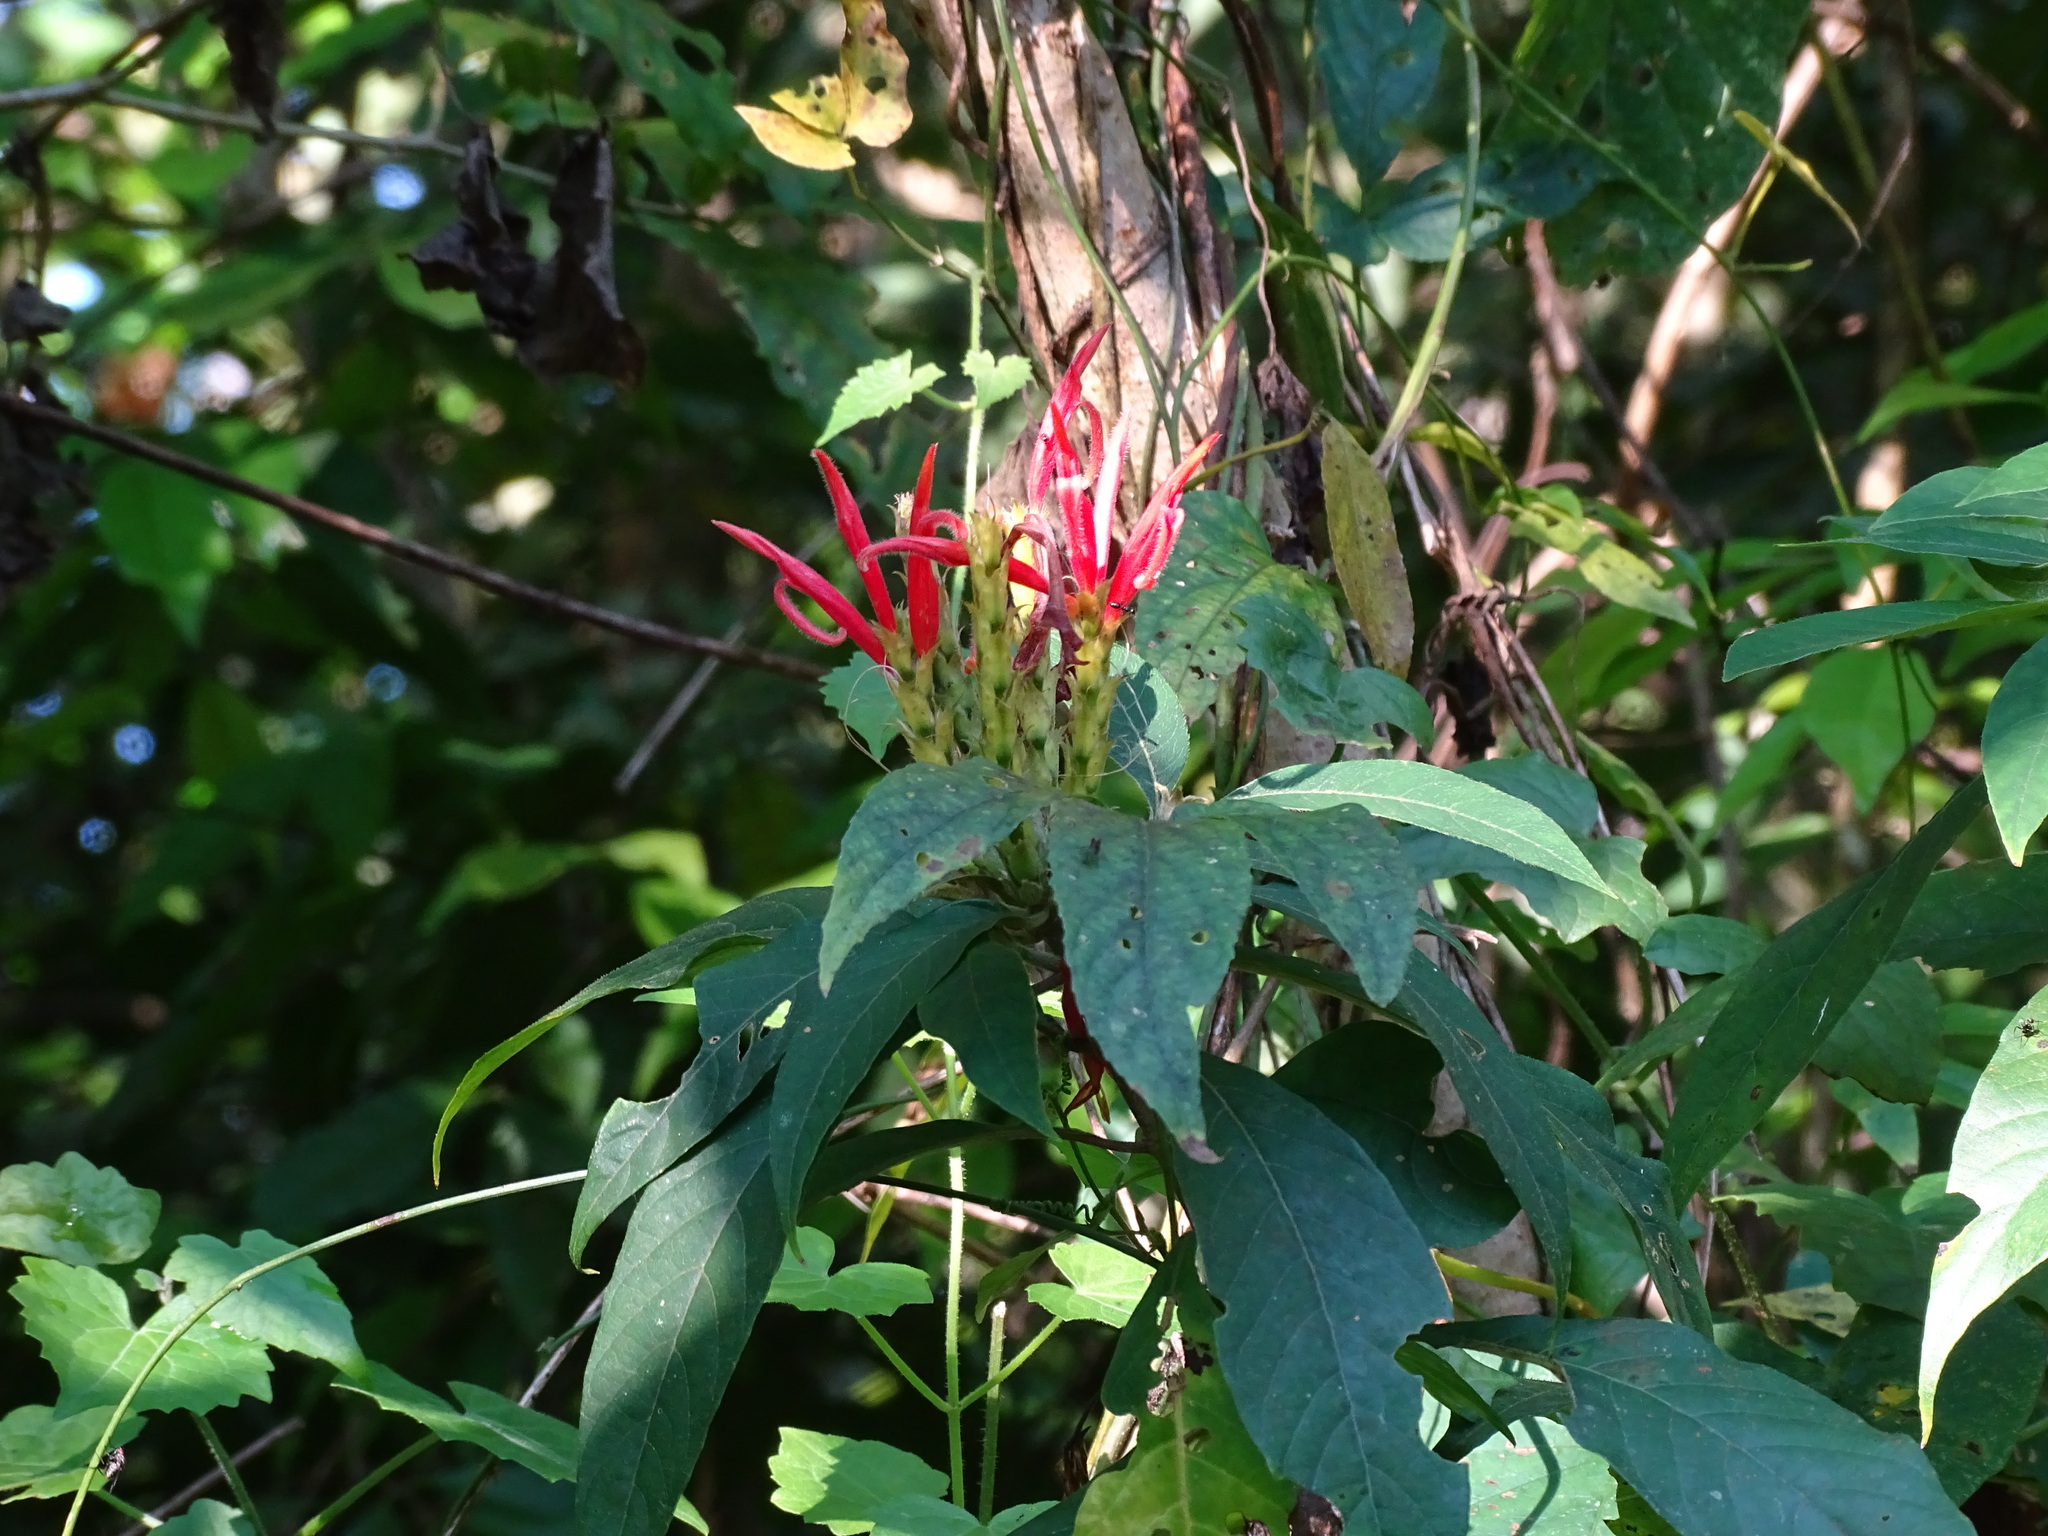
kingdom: Plantae
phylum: Tracheophyta
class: Magnoliopsida
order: Lamiales
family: Acanthaceae
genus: Aphelandra
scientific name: Aphelandra scabra
